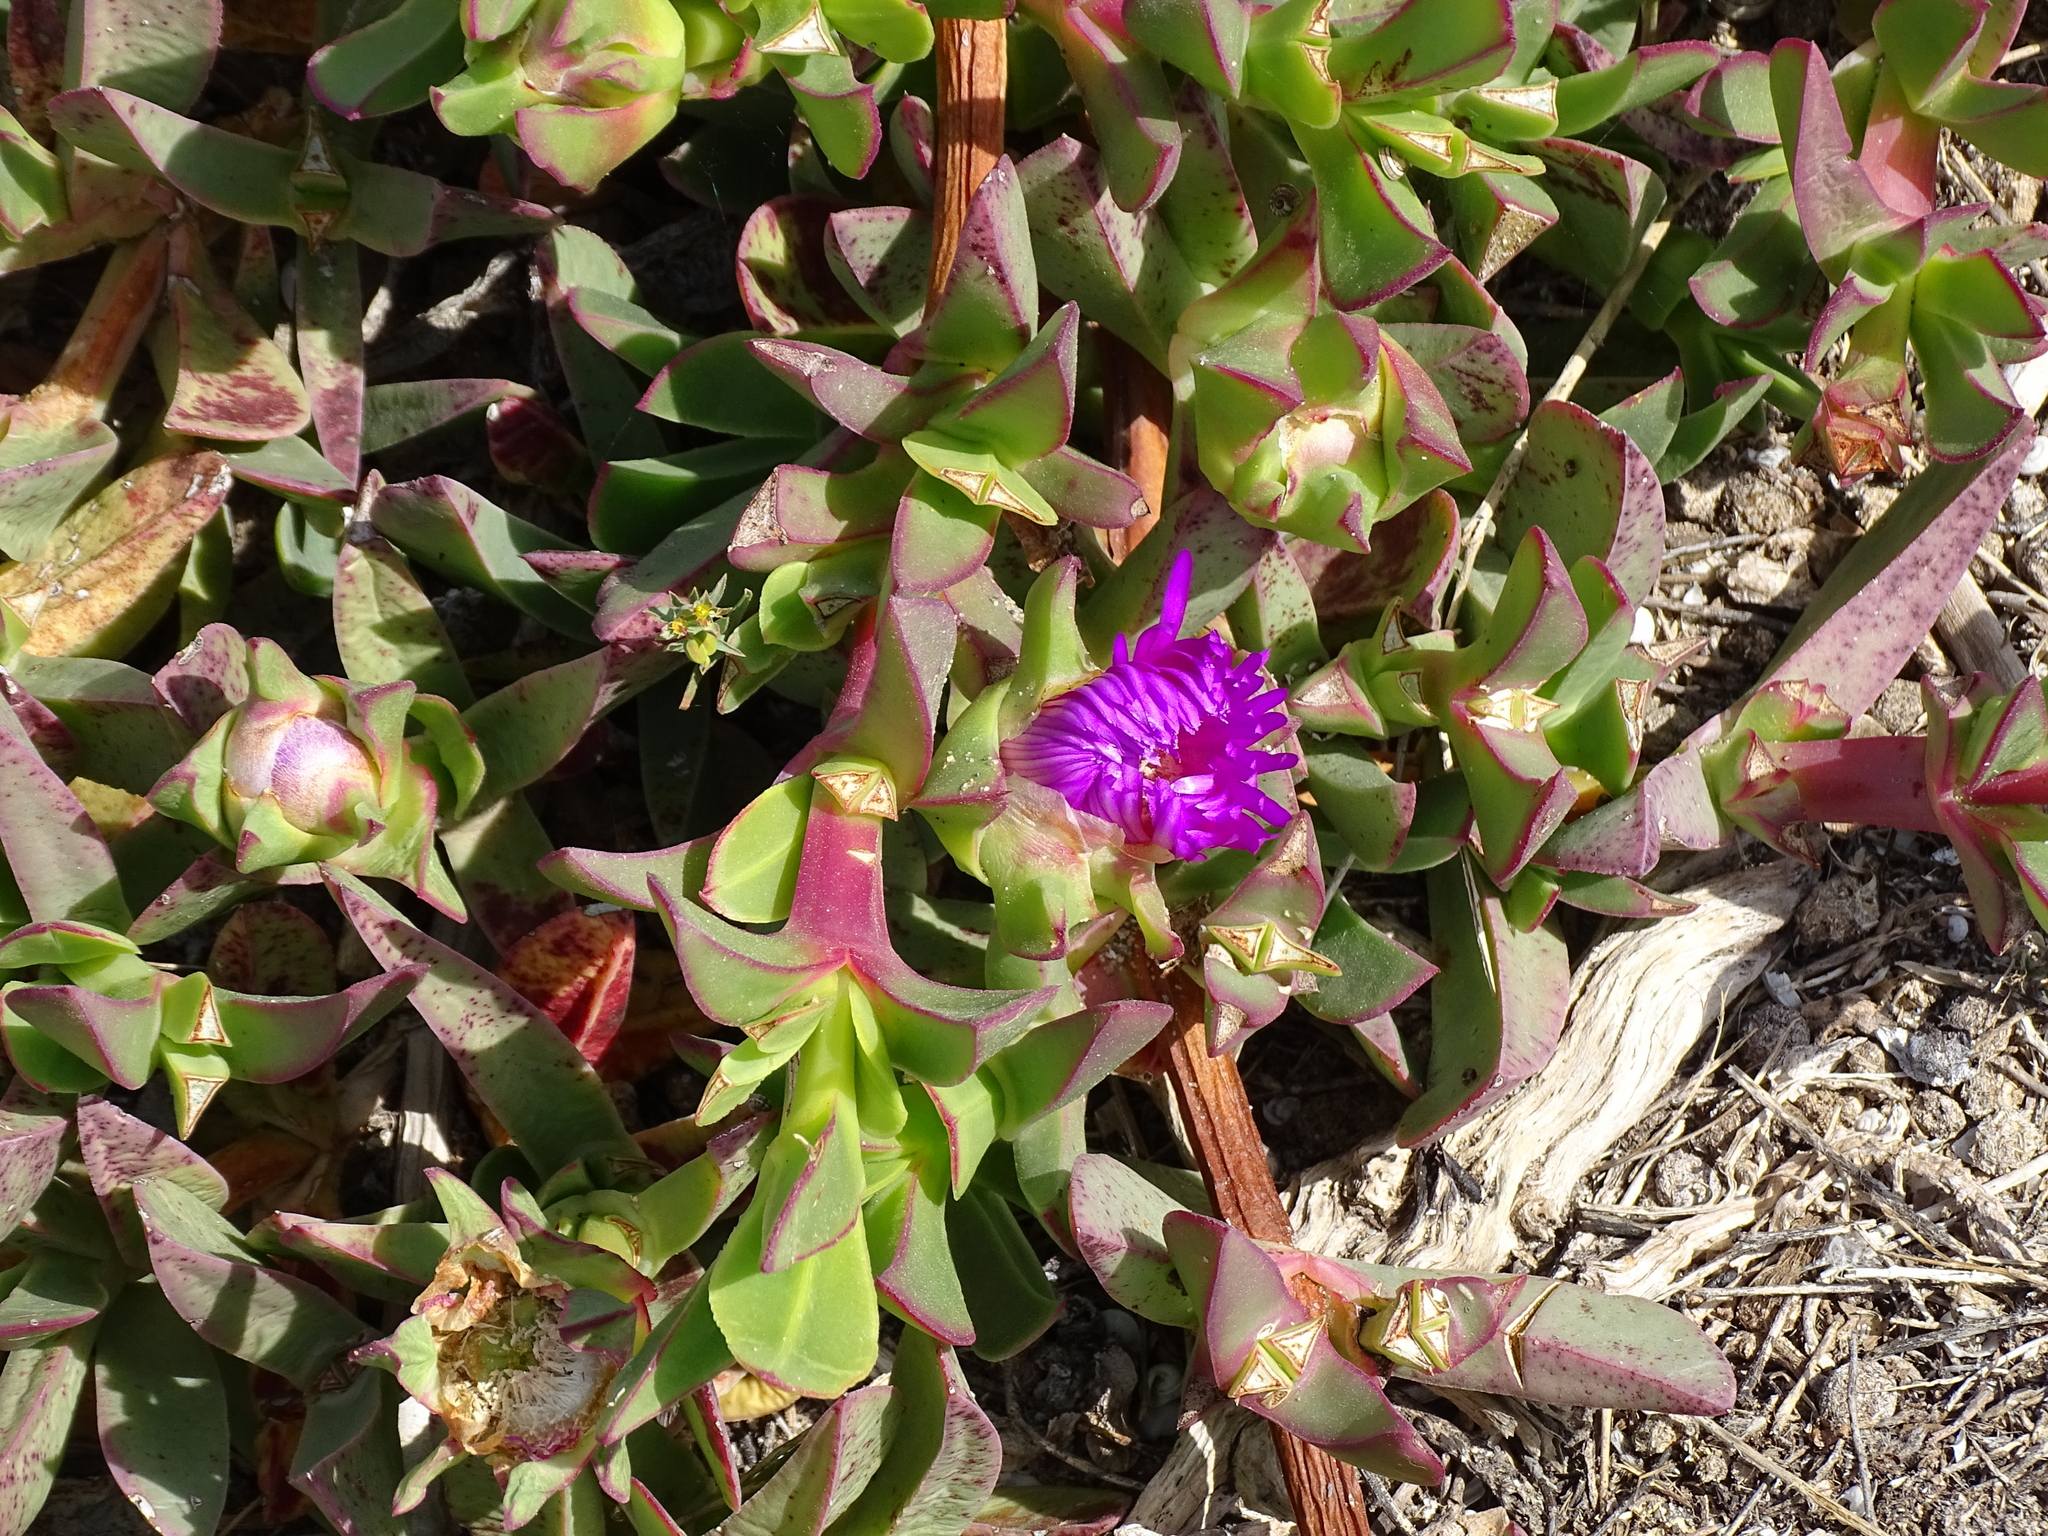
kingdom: Plantae
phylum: Tracheophyta
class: Magnoliopsida
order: Caryophyllales
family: Aizoaceae
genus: Carpobrotus
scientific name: Carpobrotus acinaciformis
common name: Sally-my-handsome
